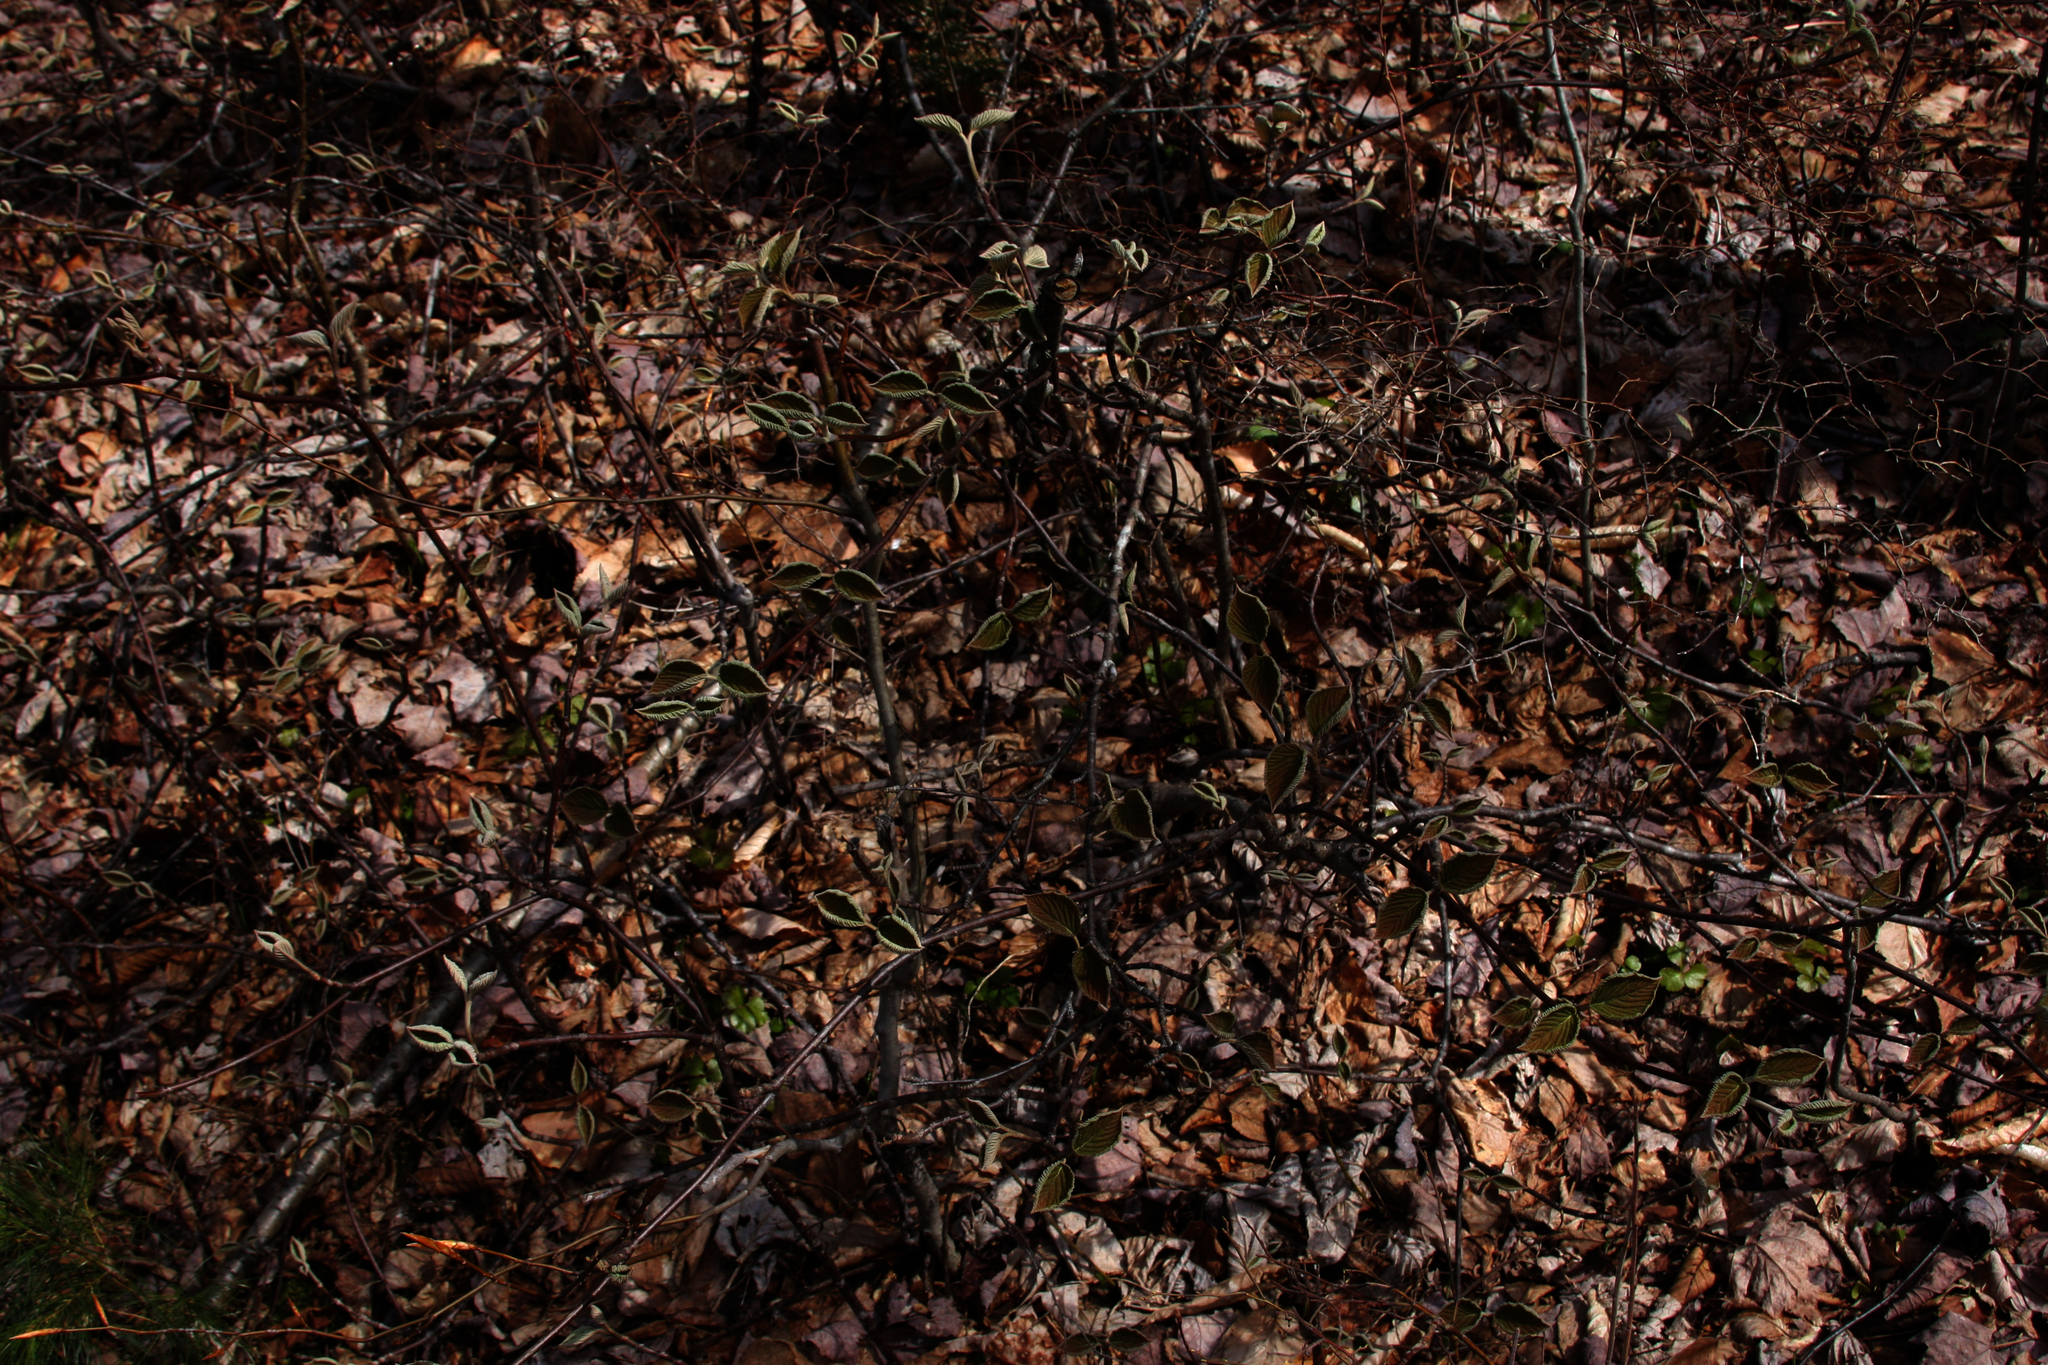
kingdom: Plantae
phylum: Tracheophyta
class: Magnoliopsida
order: Dipsacales
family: Viburnaceae
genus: Viburnum
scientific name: Viburnum lantanoides
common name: Hobblebush
